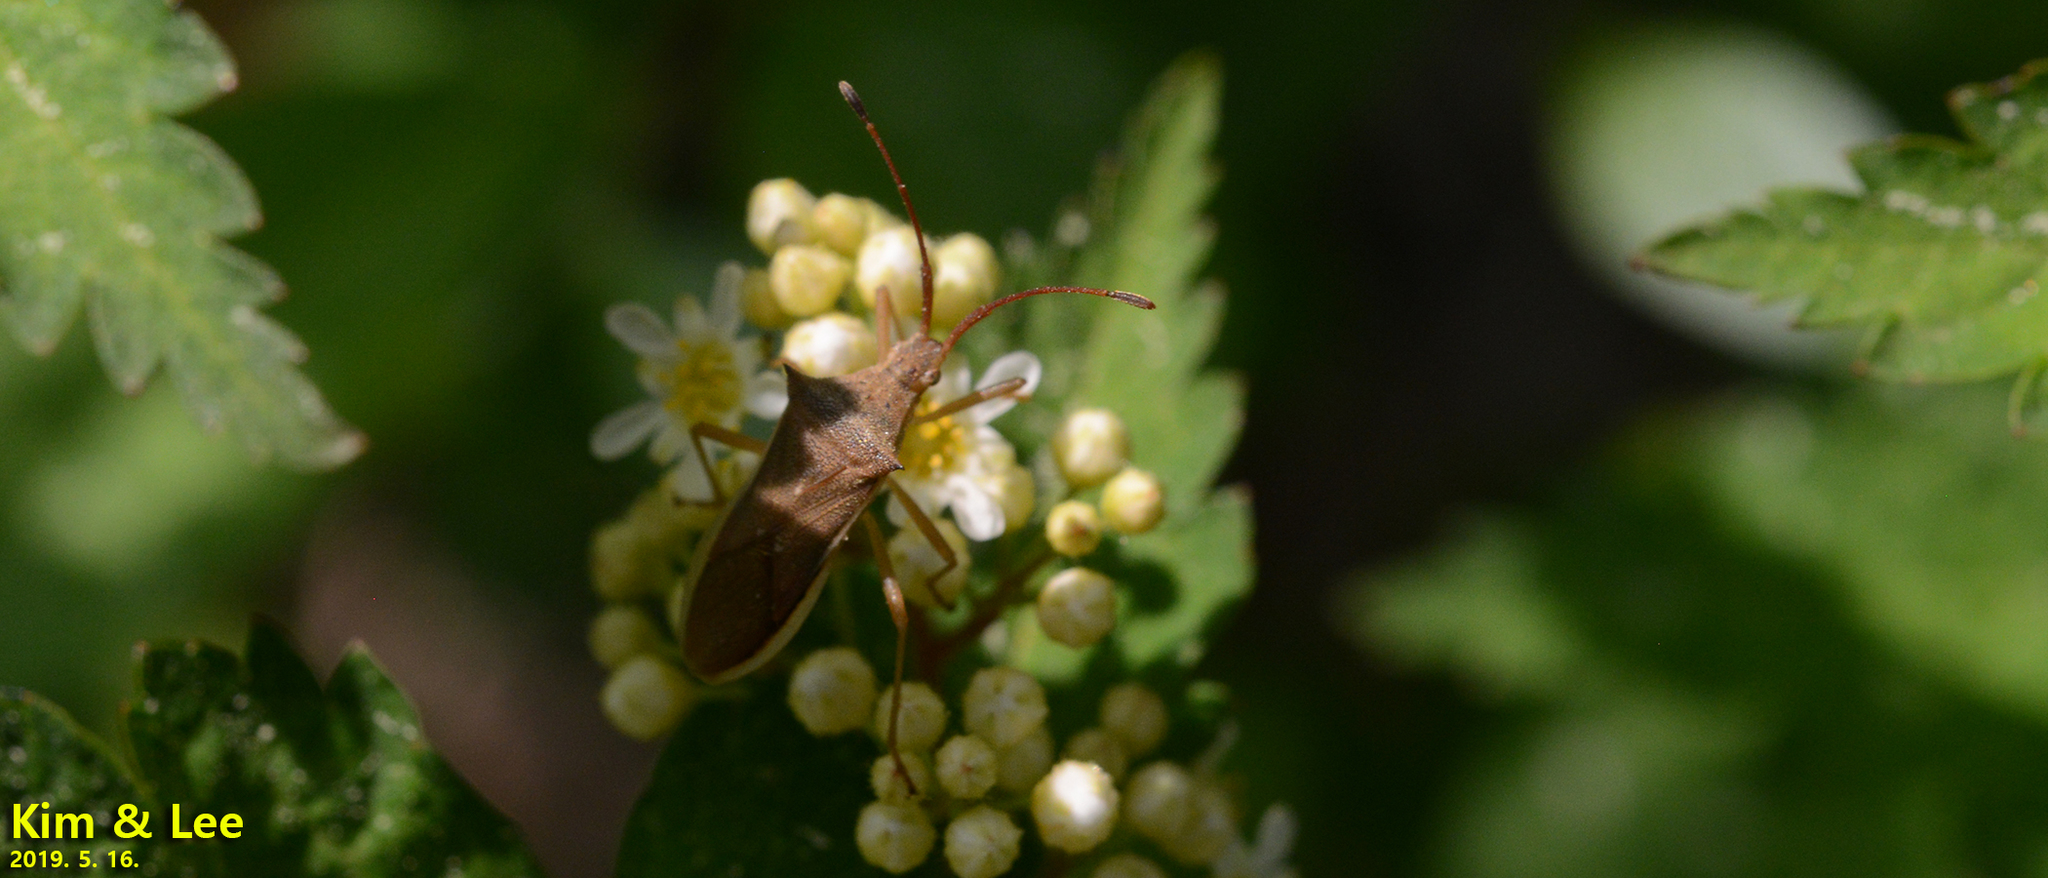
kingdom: Animalia
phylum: Arthropoda
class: Insecta
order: Hemiptera
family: Coreidae
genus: Cletus
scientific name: Cletus punctiger
